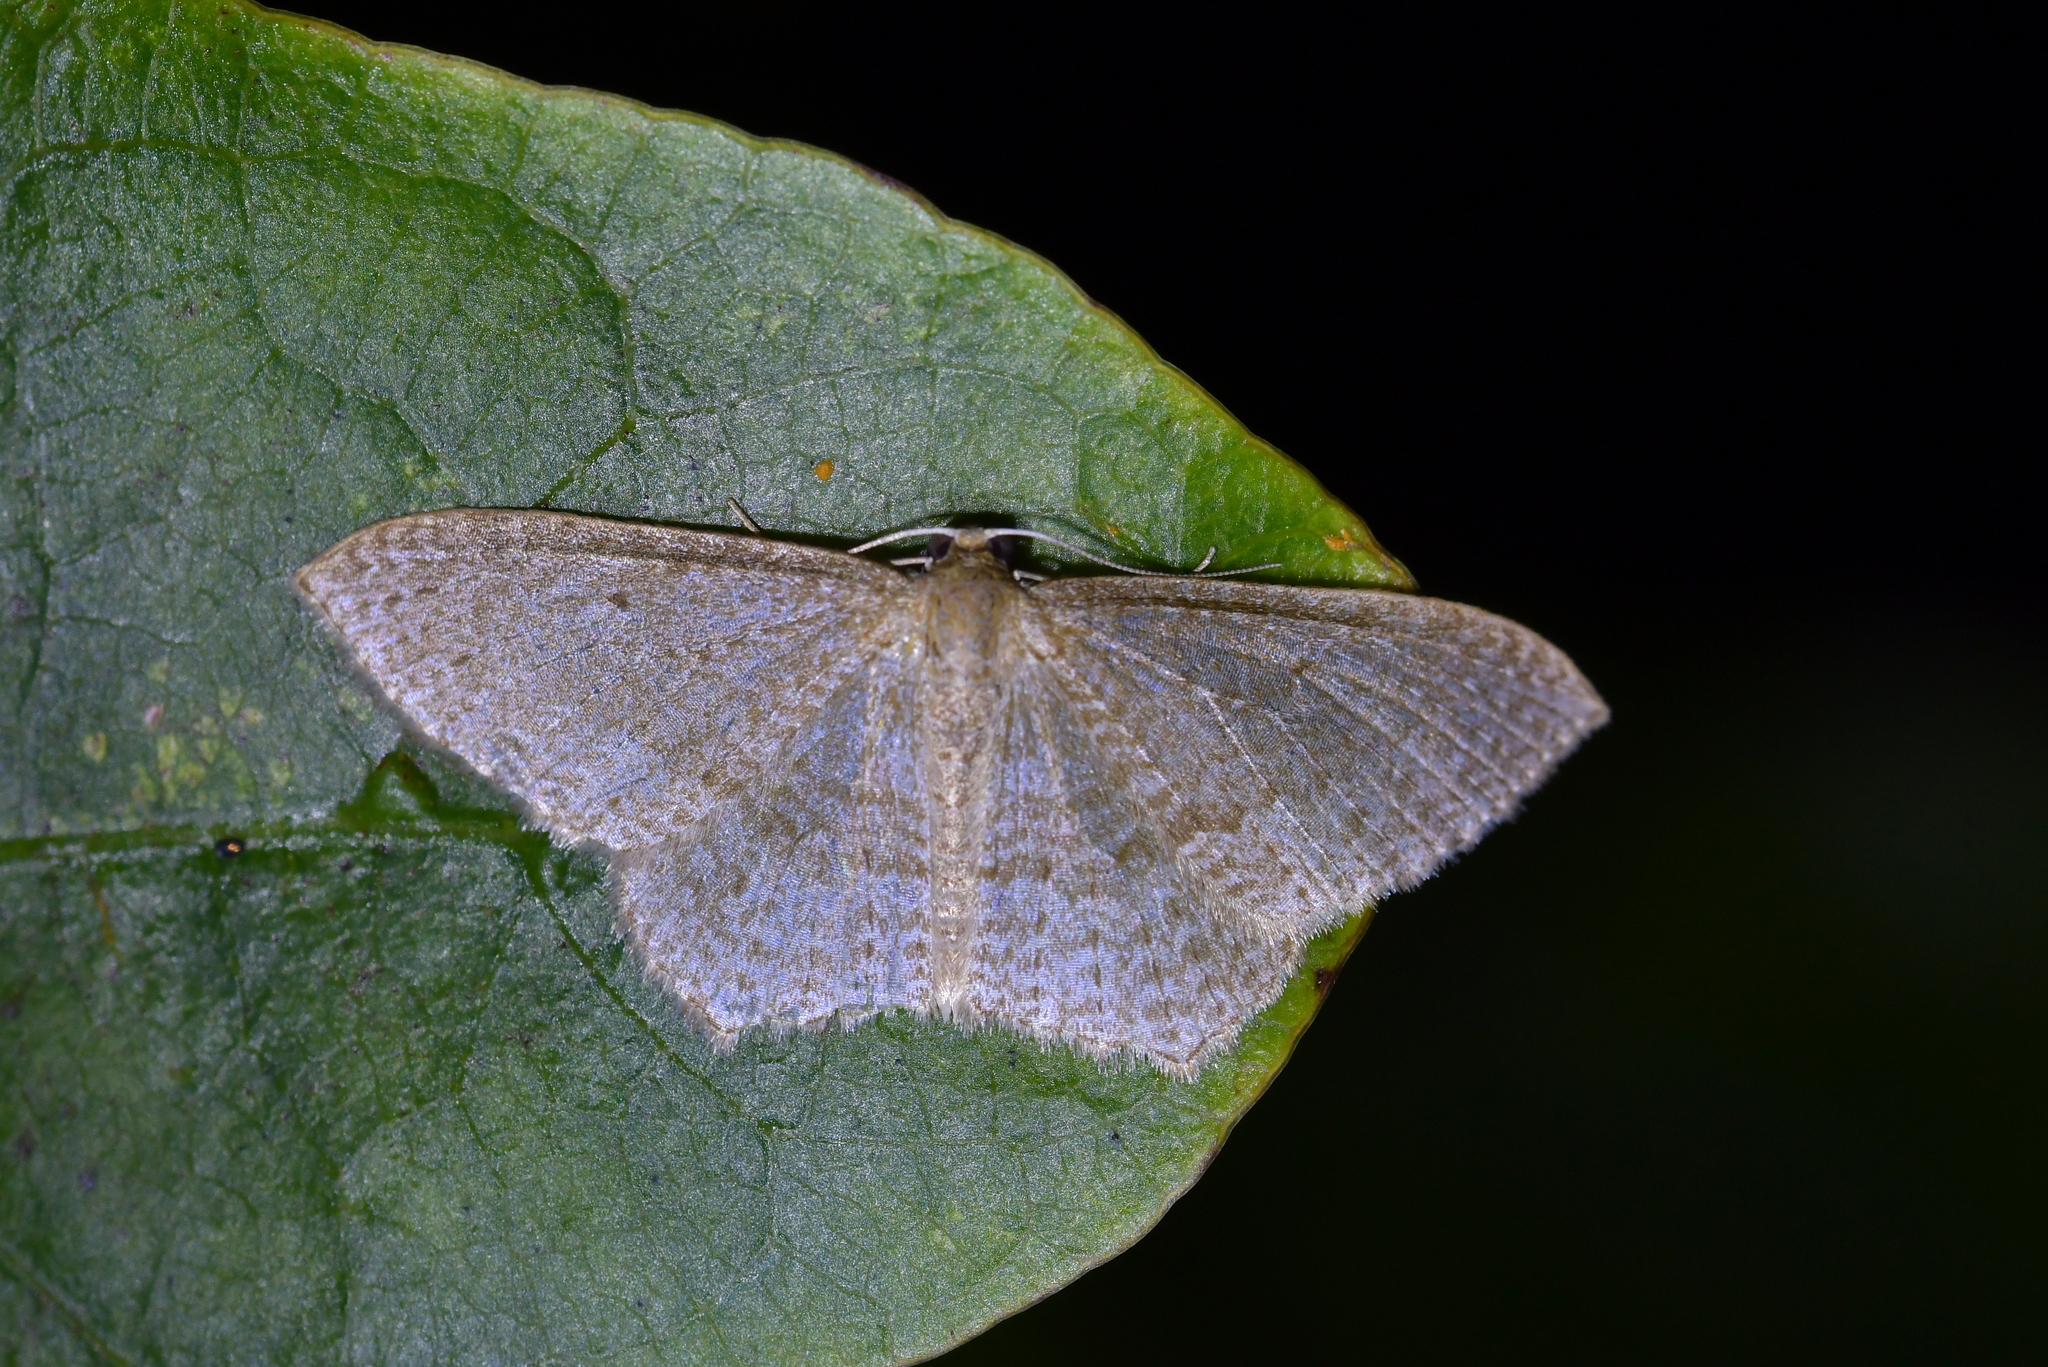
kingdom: Animalia
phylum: Arthropoda
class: Insecta
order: Lepidoptera
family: Geometridae
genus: Poecilasthena
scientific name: Poecilasthena subpurpureata
